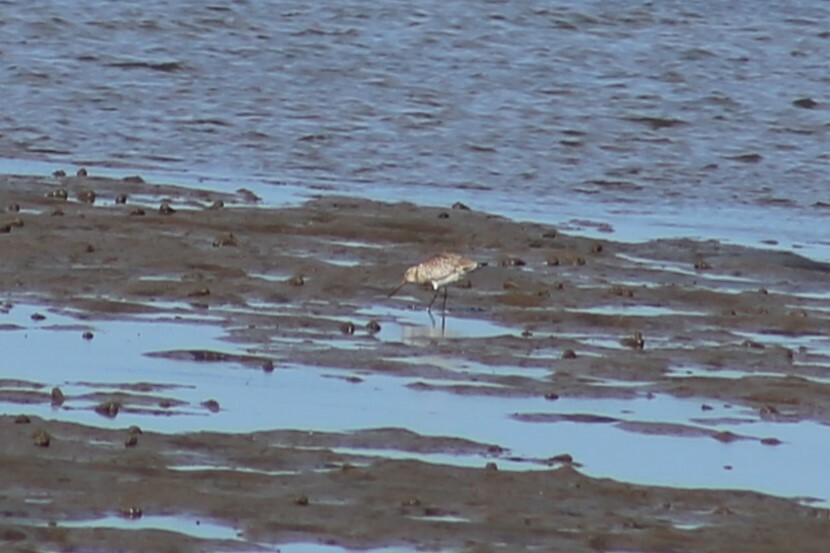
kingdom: Animalia
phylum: Chordata
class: Aves
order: Charadriiformes
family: Scolopacidae
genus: Limosa
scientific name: Limosa lapponica
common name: Bar-tailed godwit
